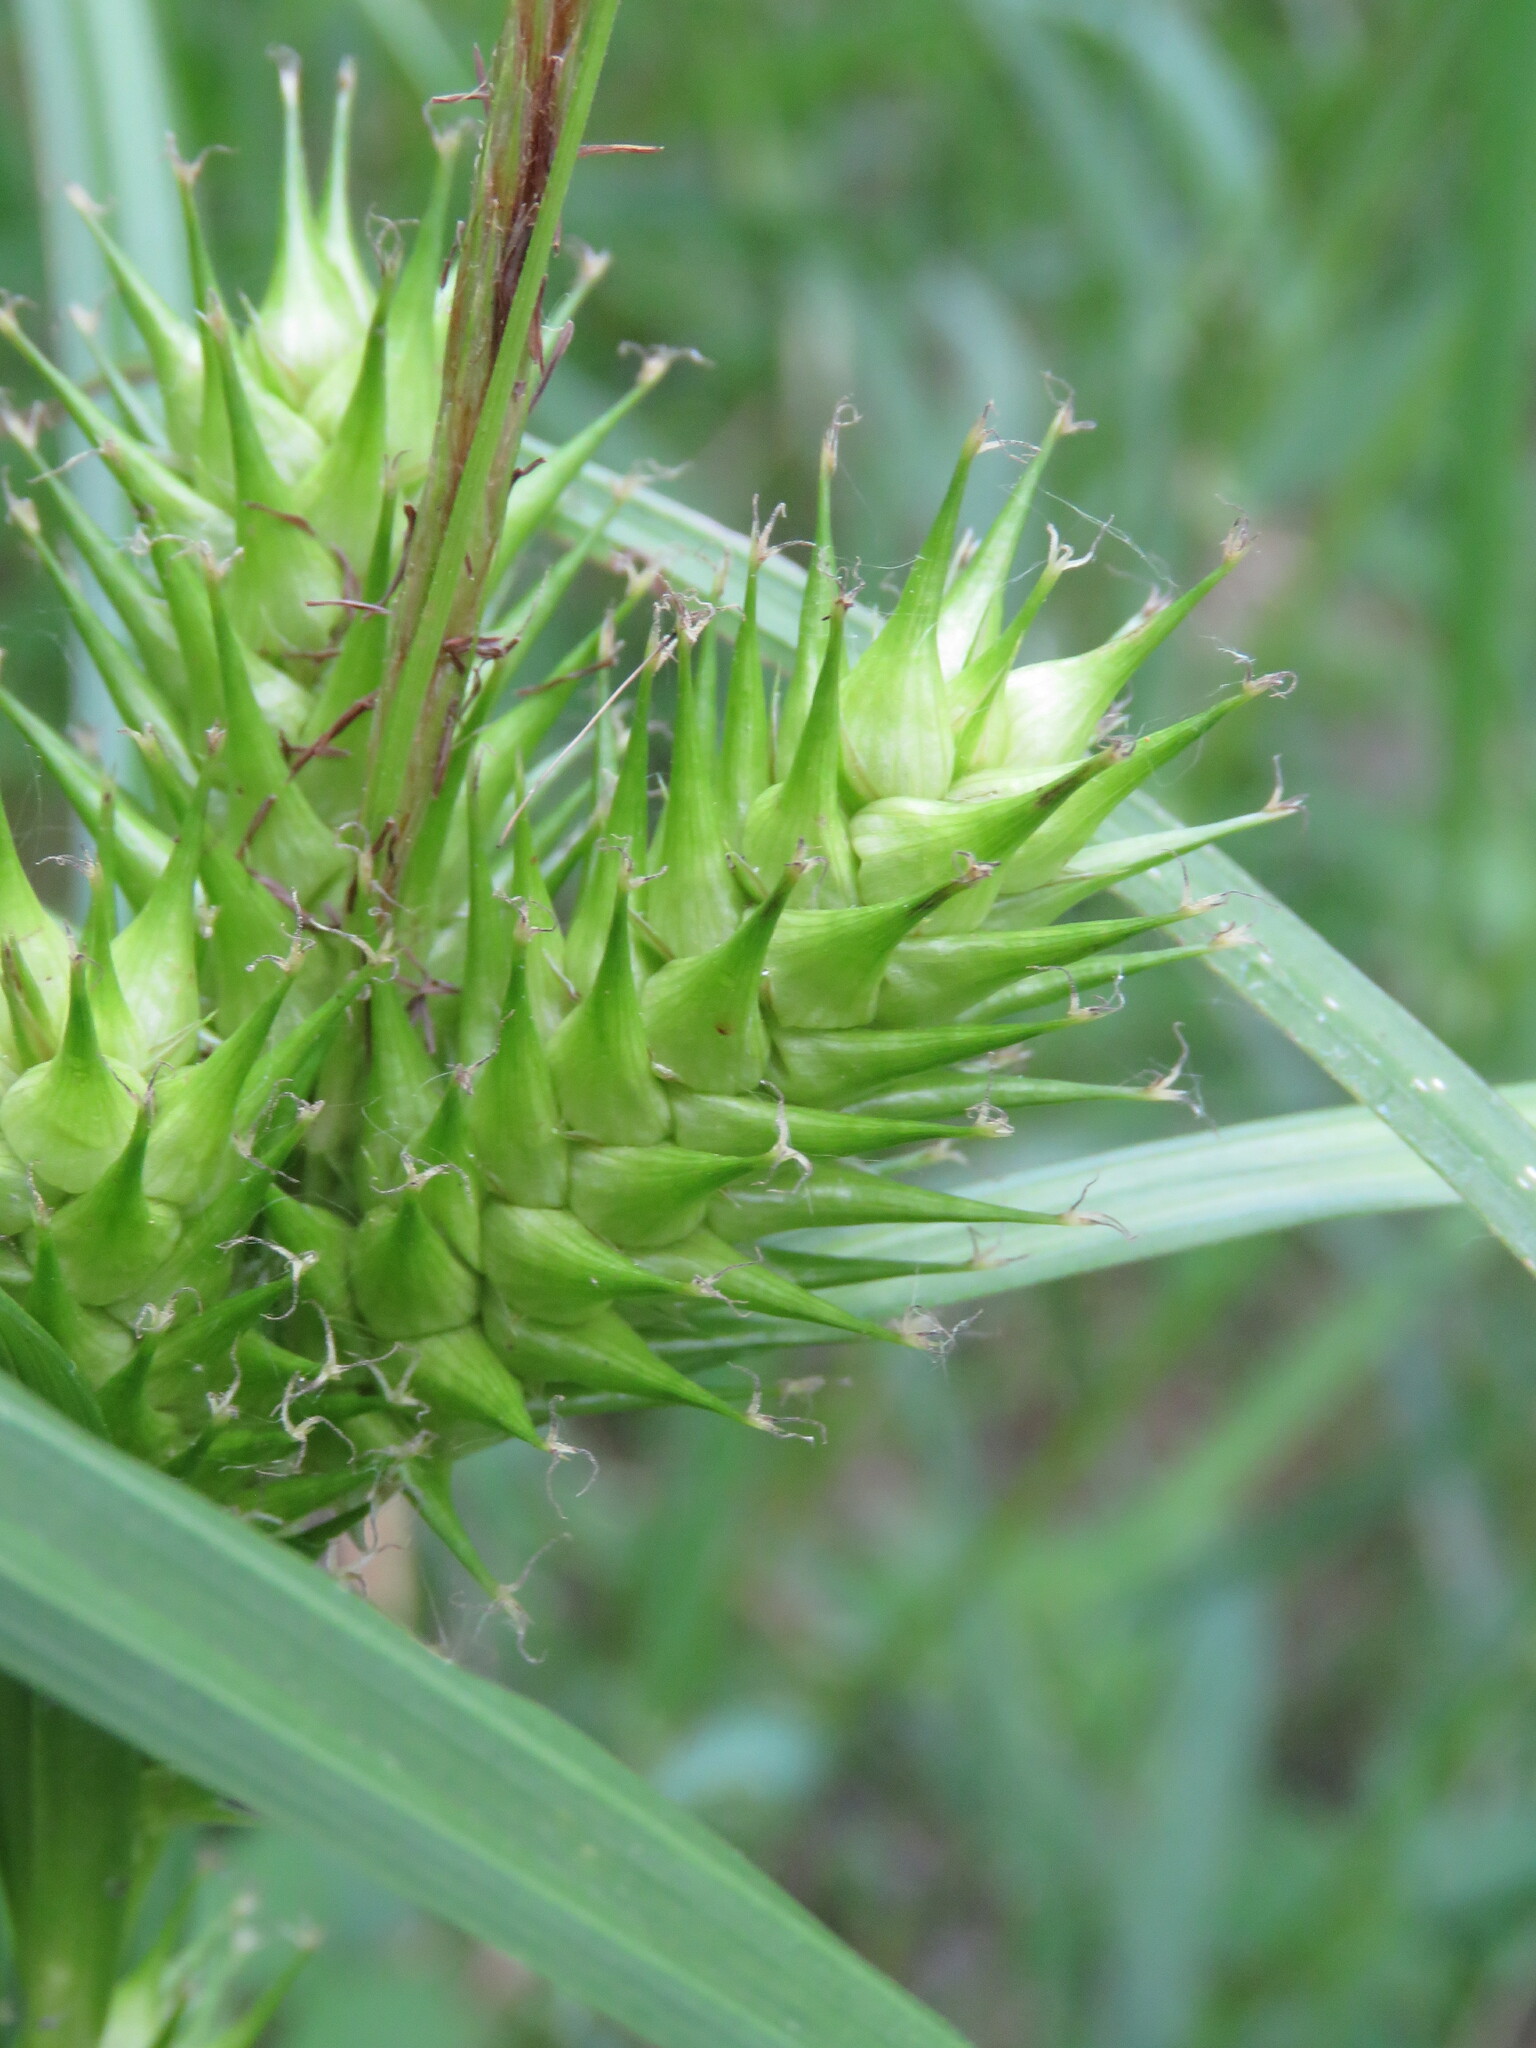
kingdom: Plantae
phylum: Tracheophyta
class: Liliopsida
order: Poales
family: Cyperaceae
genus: Carex
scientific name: Carex lupulina
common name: Hop sedge
